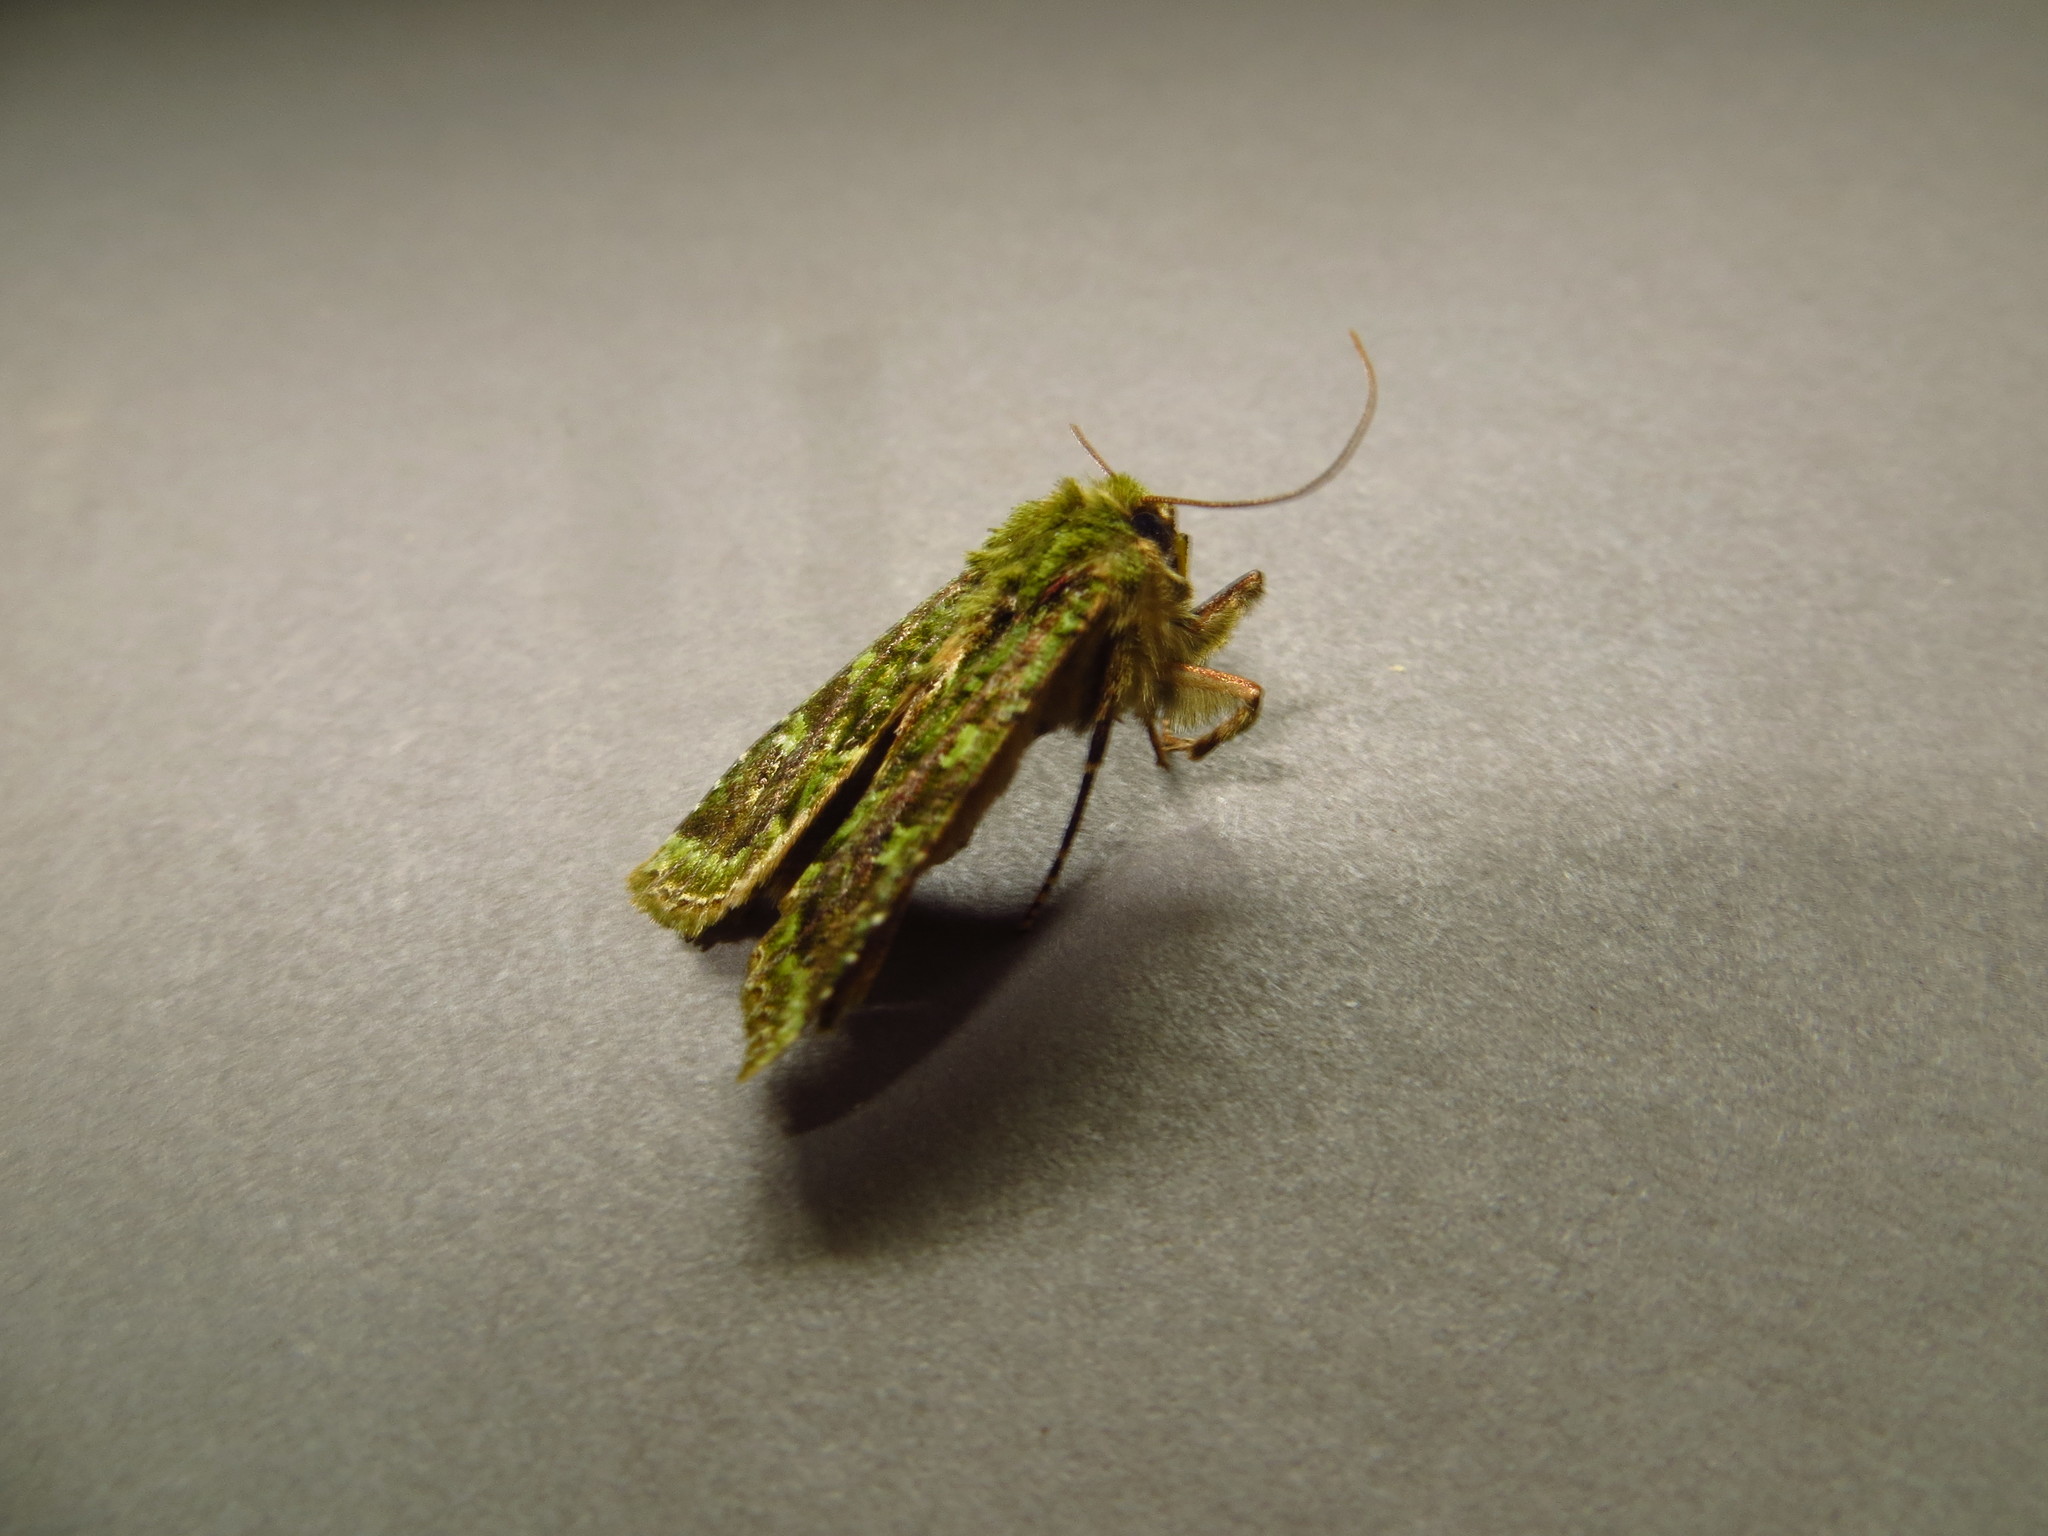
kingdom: Animalia
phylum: Arthropoda
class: Insecta
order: Lepidoptera
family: Noctuidae
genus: Feredayia
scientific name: Feredayia grammosa
